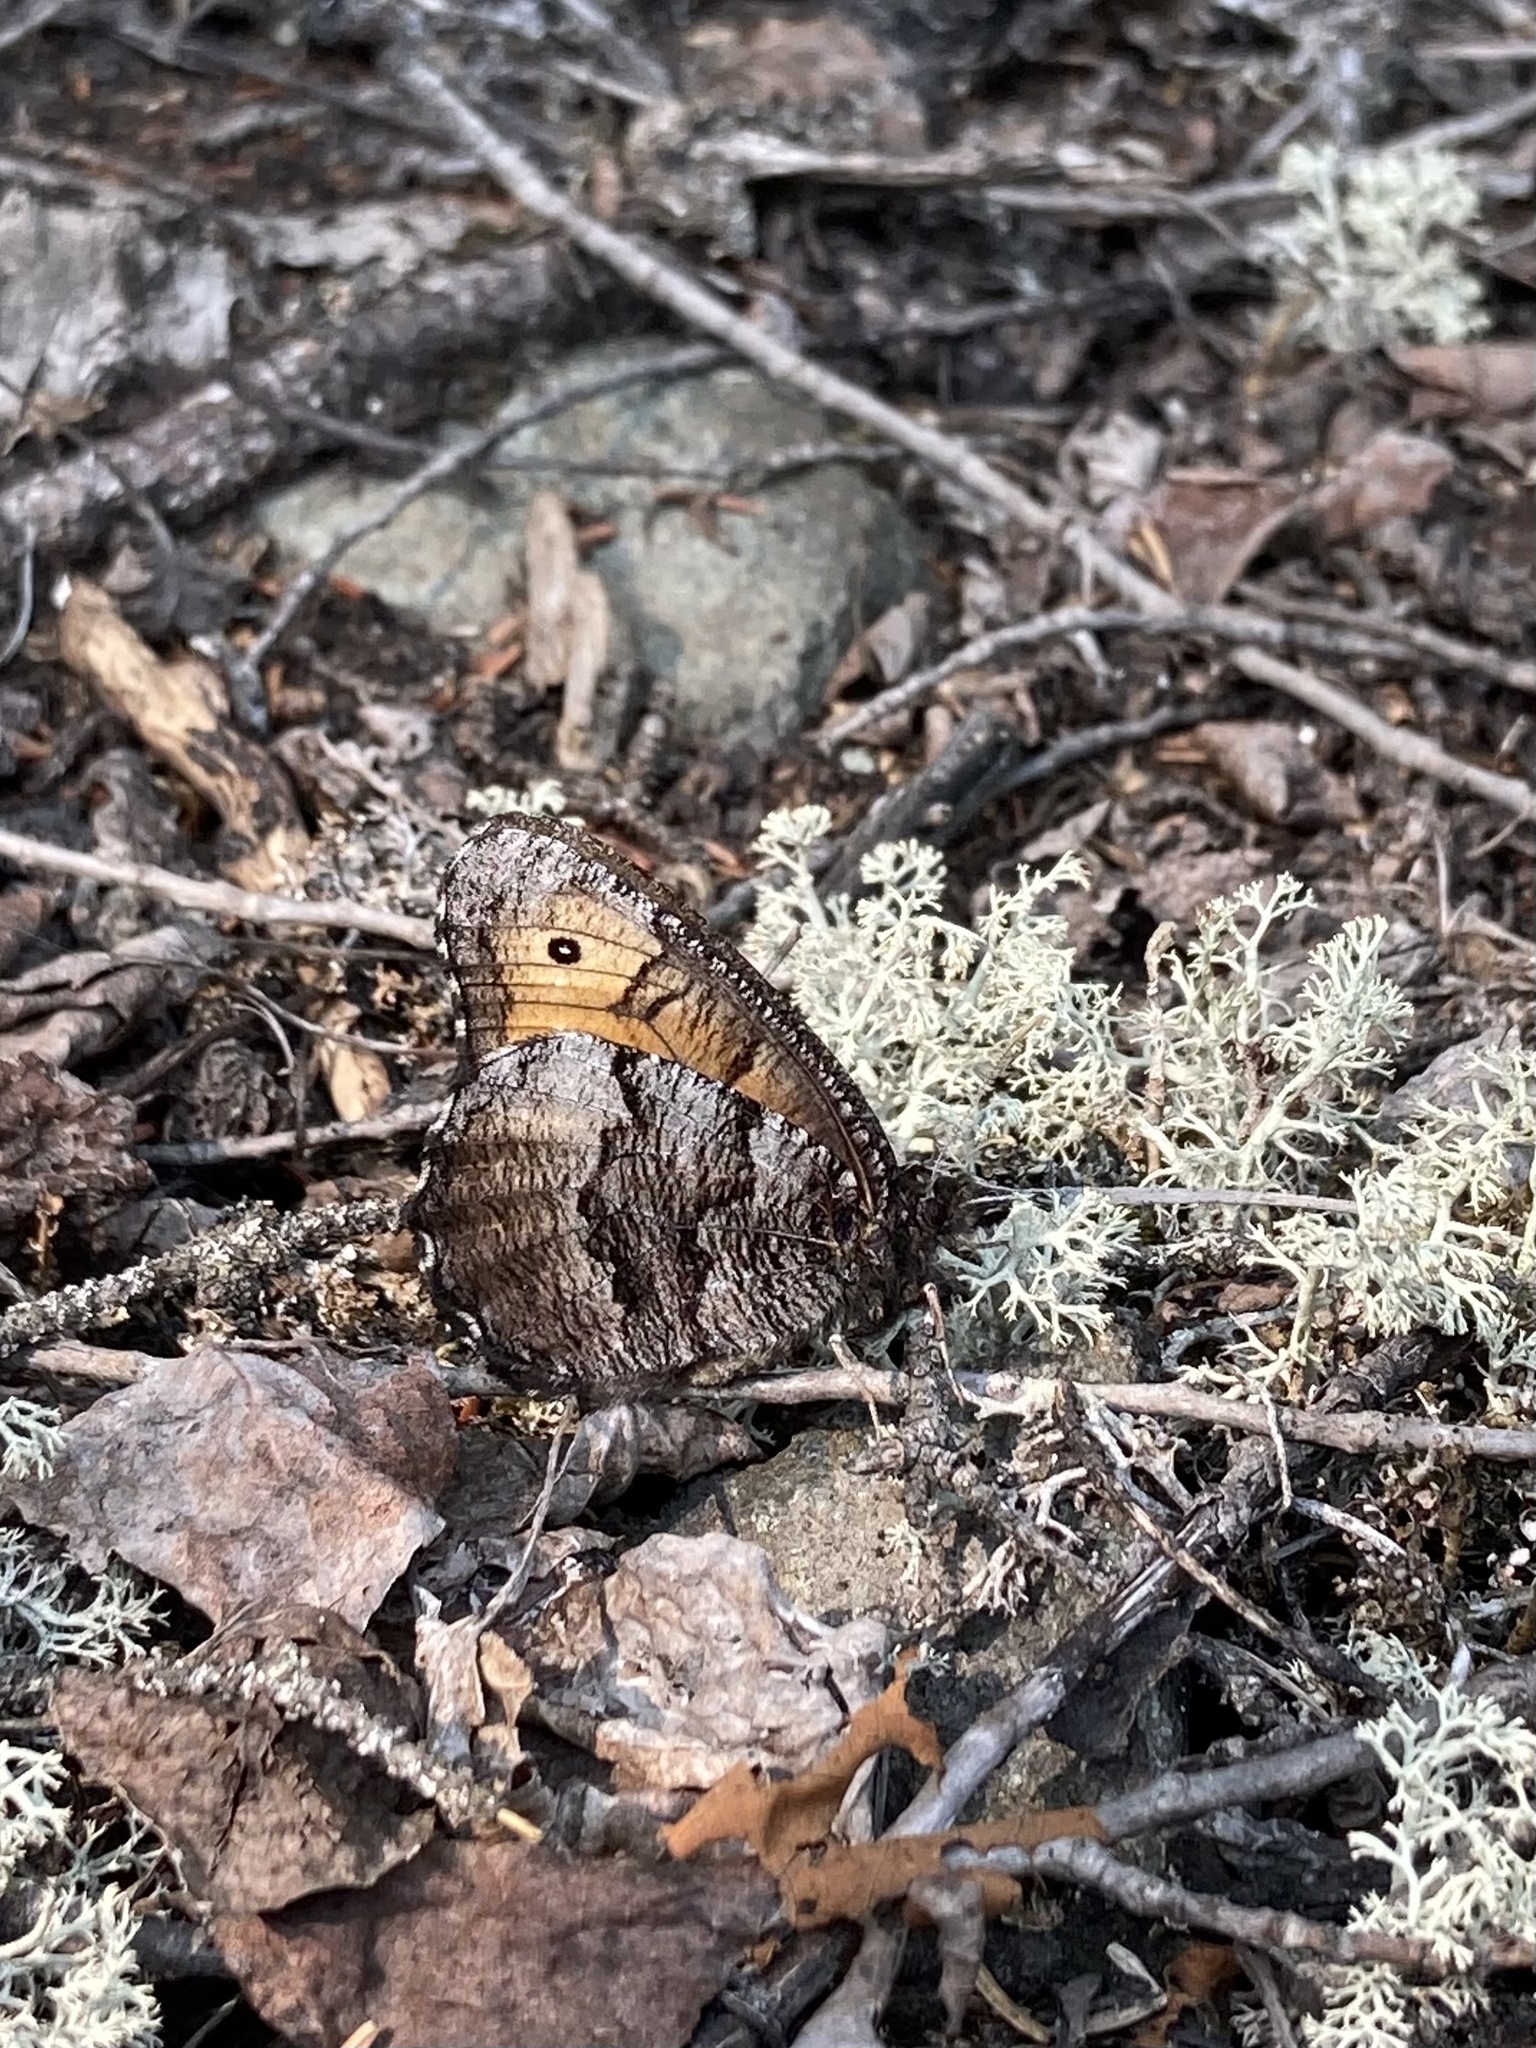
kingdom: Animalia
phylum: Arthropoda
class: Insecta
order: Lepidoptera
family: Nymphalidae
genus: Oeneis
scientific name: Oeneis macounii
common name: Macoun's arctic
